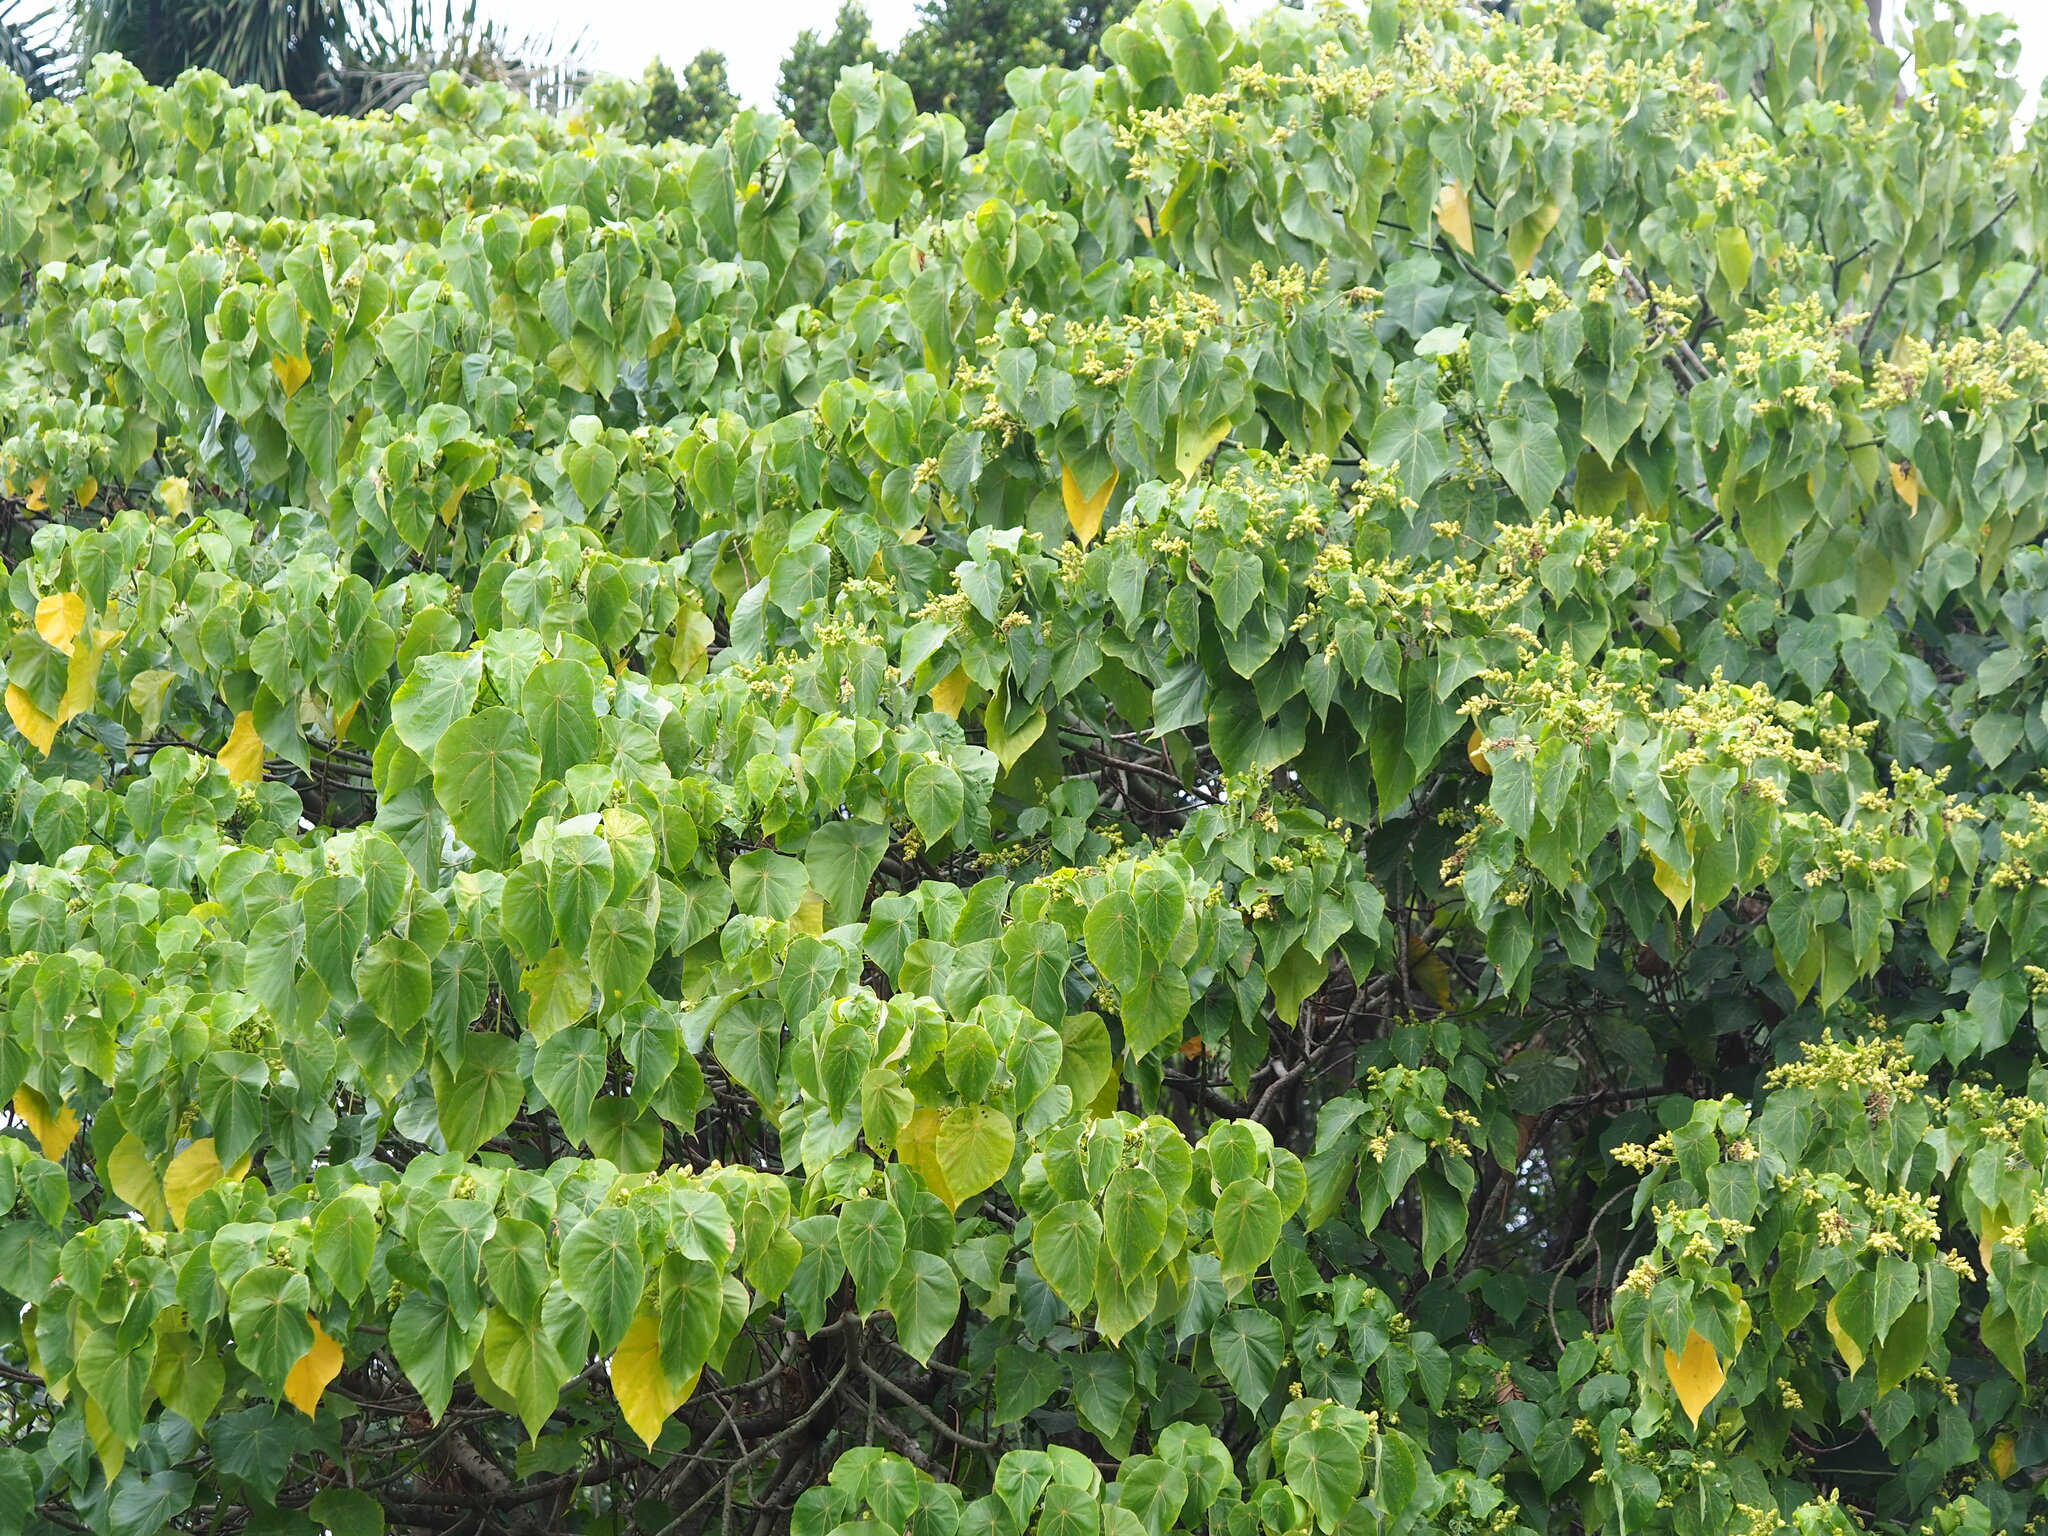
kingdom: Plantae
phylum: Tracheophyta
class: Magnoliopsida
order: Malpighiales
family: Euphorbiaceae
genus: Macaranga
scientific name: Macaranga tanarius
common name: Parasol leaf tree
